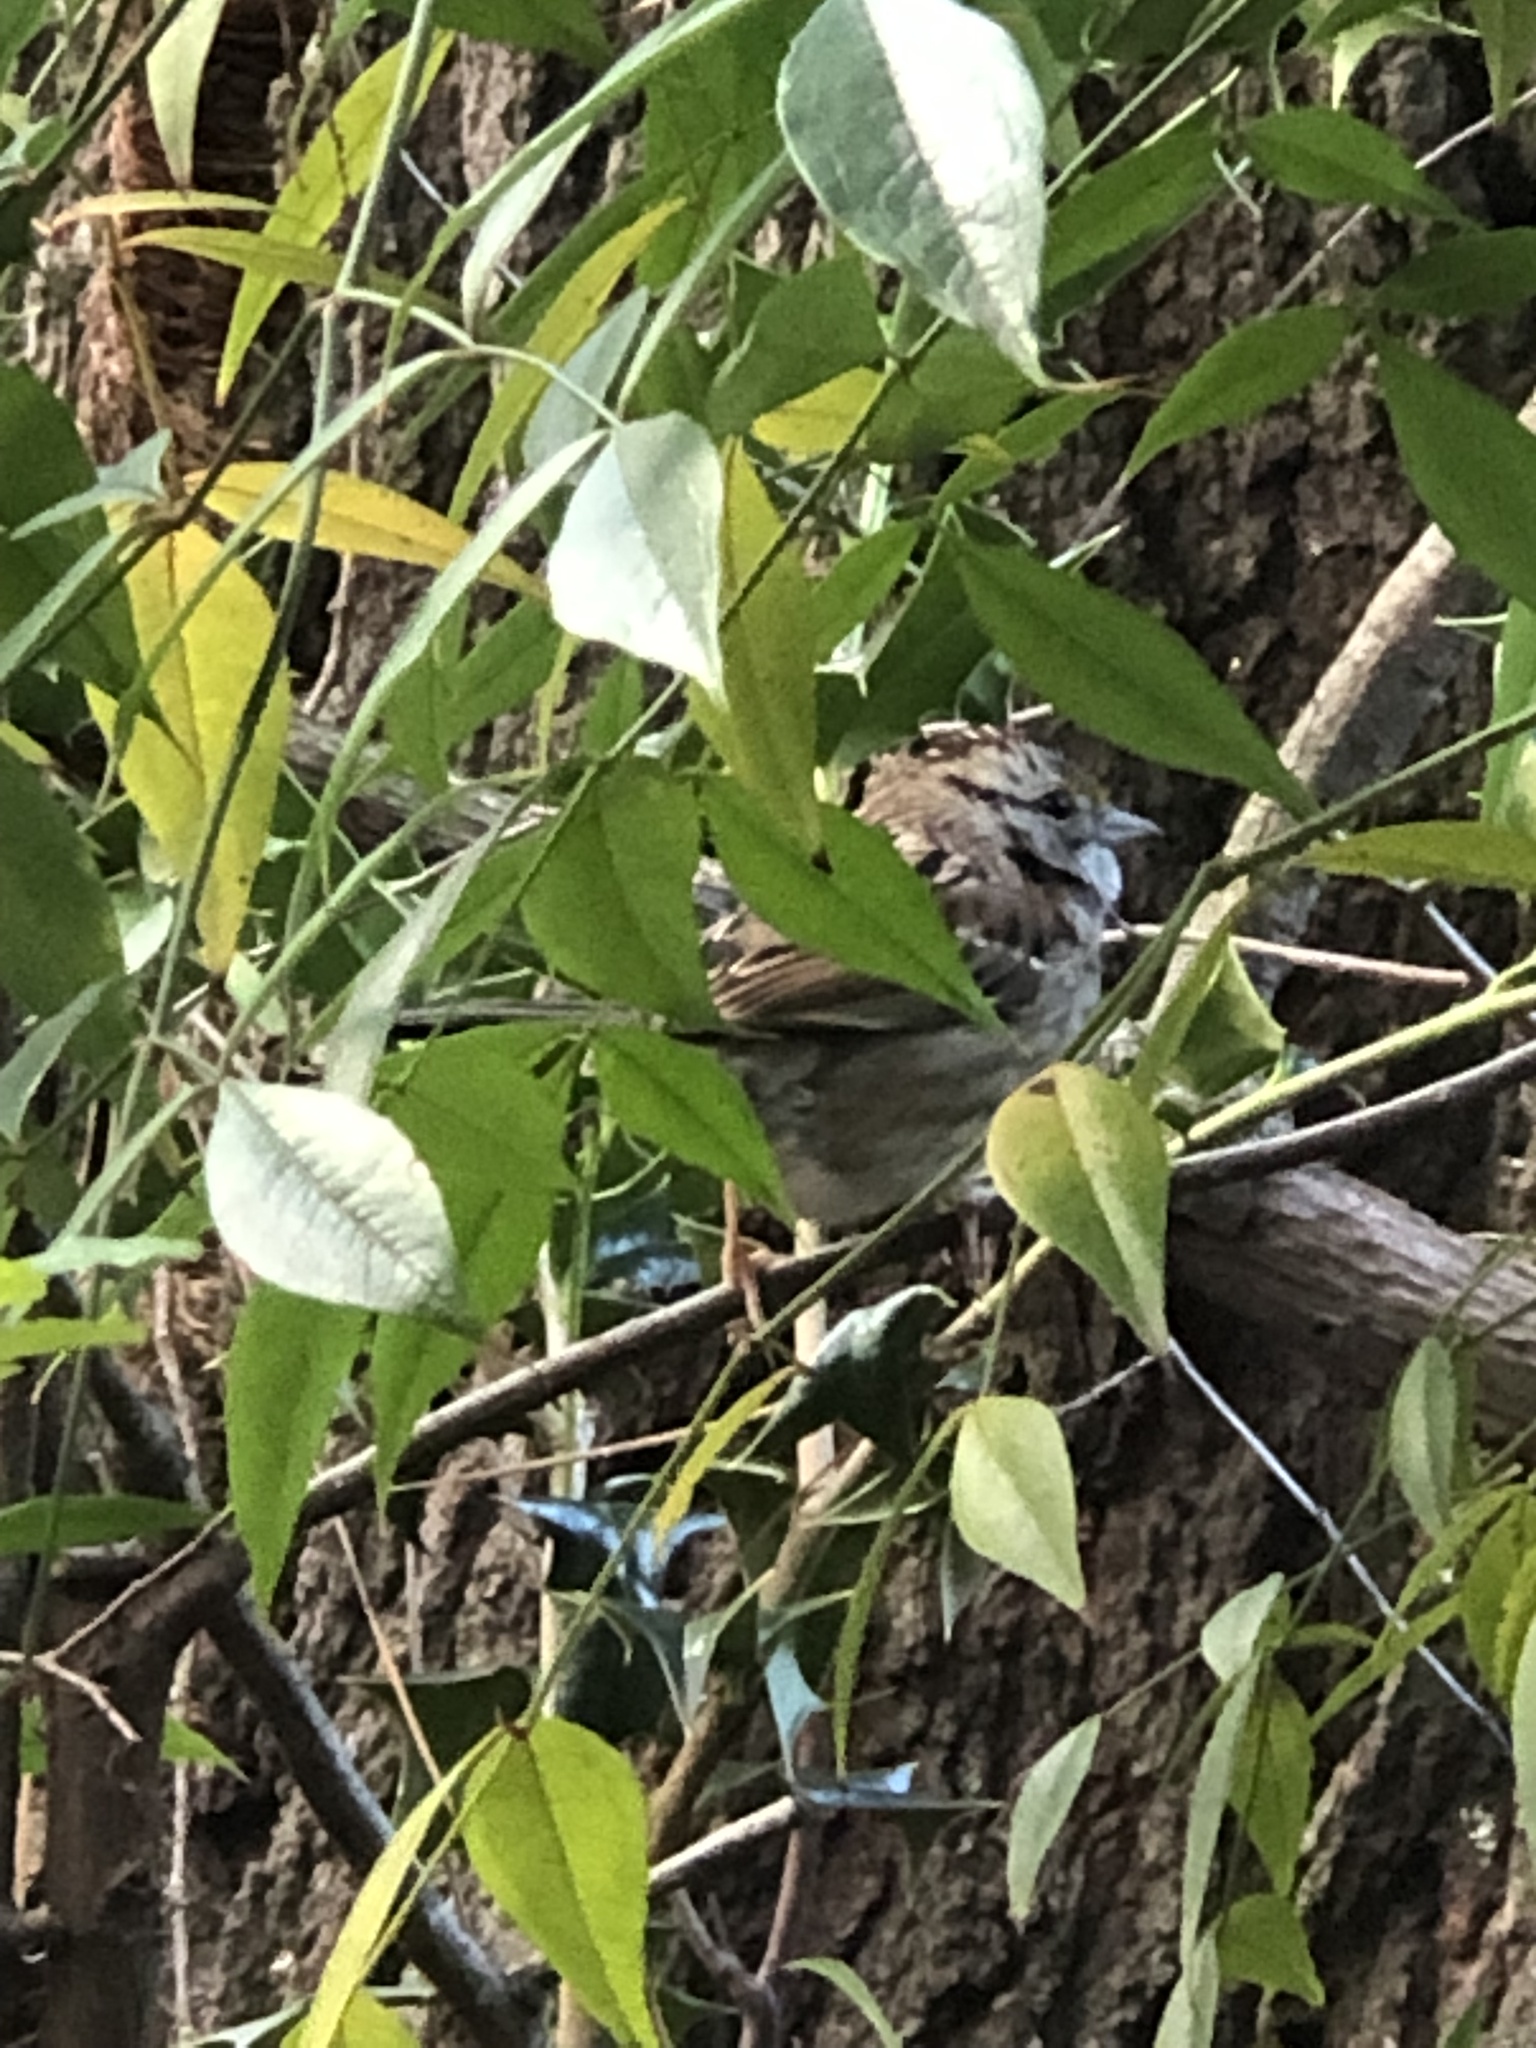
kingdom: Animalia
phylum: Chordata
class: Aves
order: Passeriformes
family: Passerellidae
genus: Zonotrichia
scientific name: Zonotrichia albicollis
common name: White-throated sparrow
